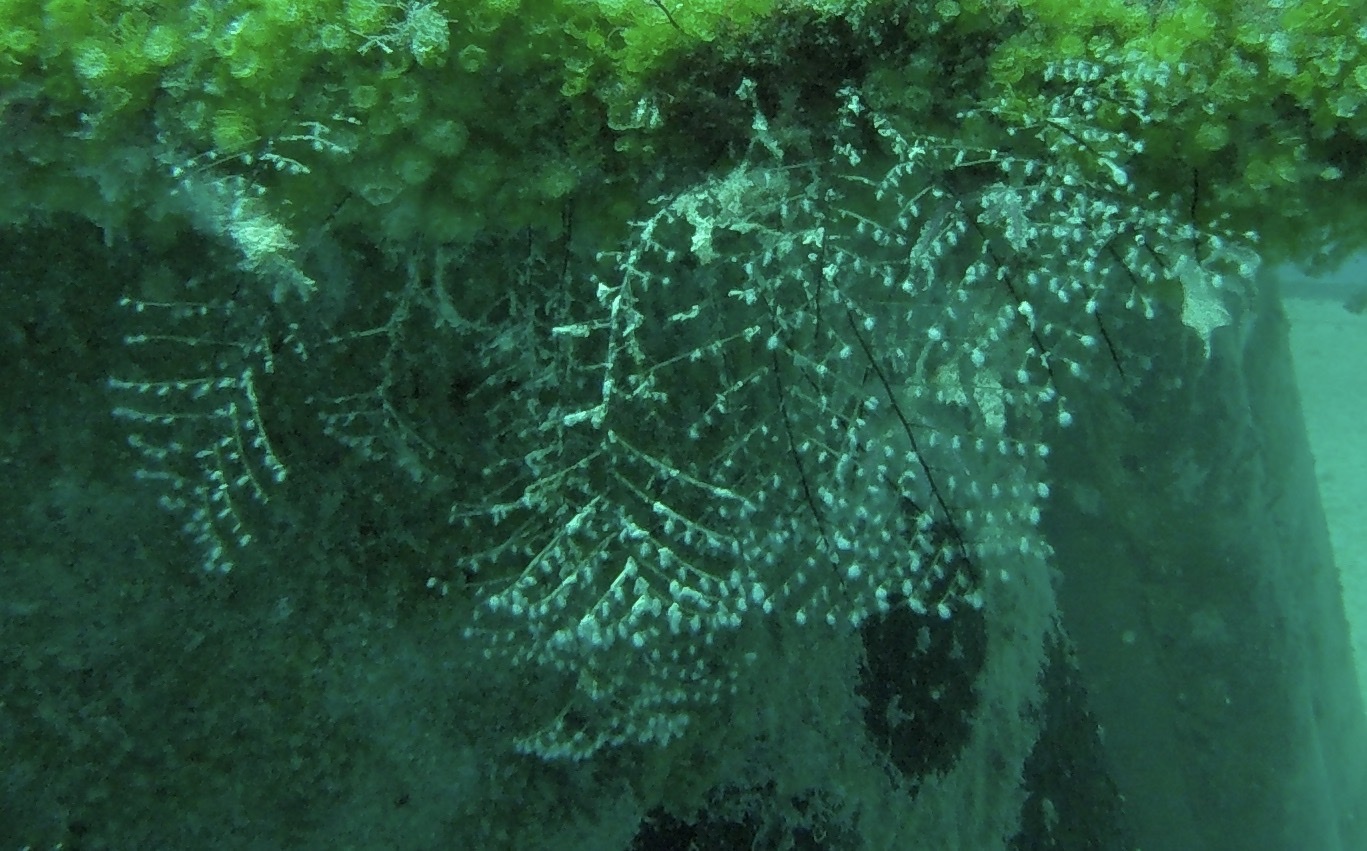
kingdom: Animalia
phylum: Cnidaria
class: Hydrozoa
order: Anthoathecata
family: Pennariidae
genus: Pennaria
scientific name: Pennaria disticha
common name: Feather hydroid
